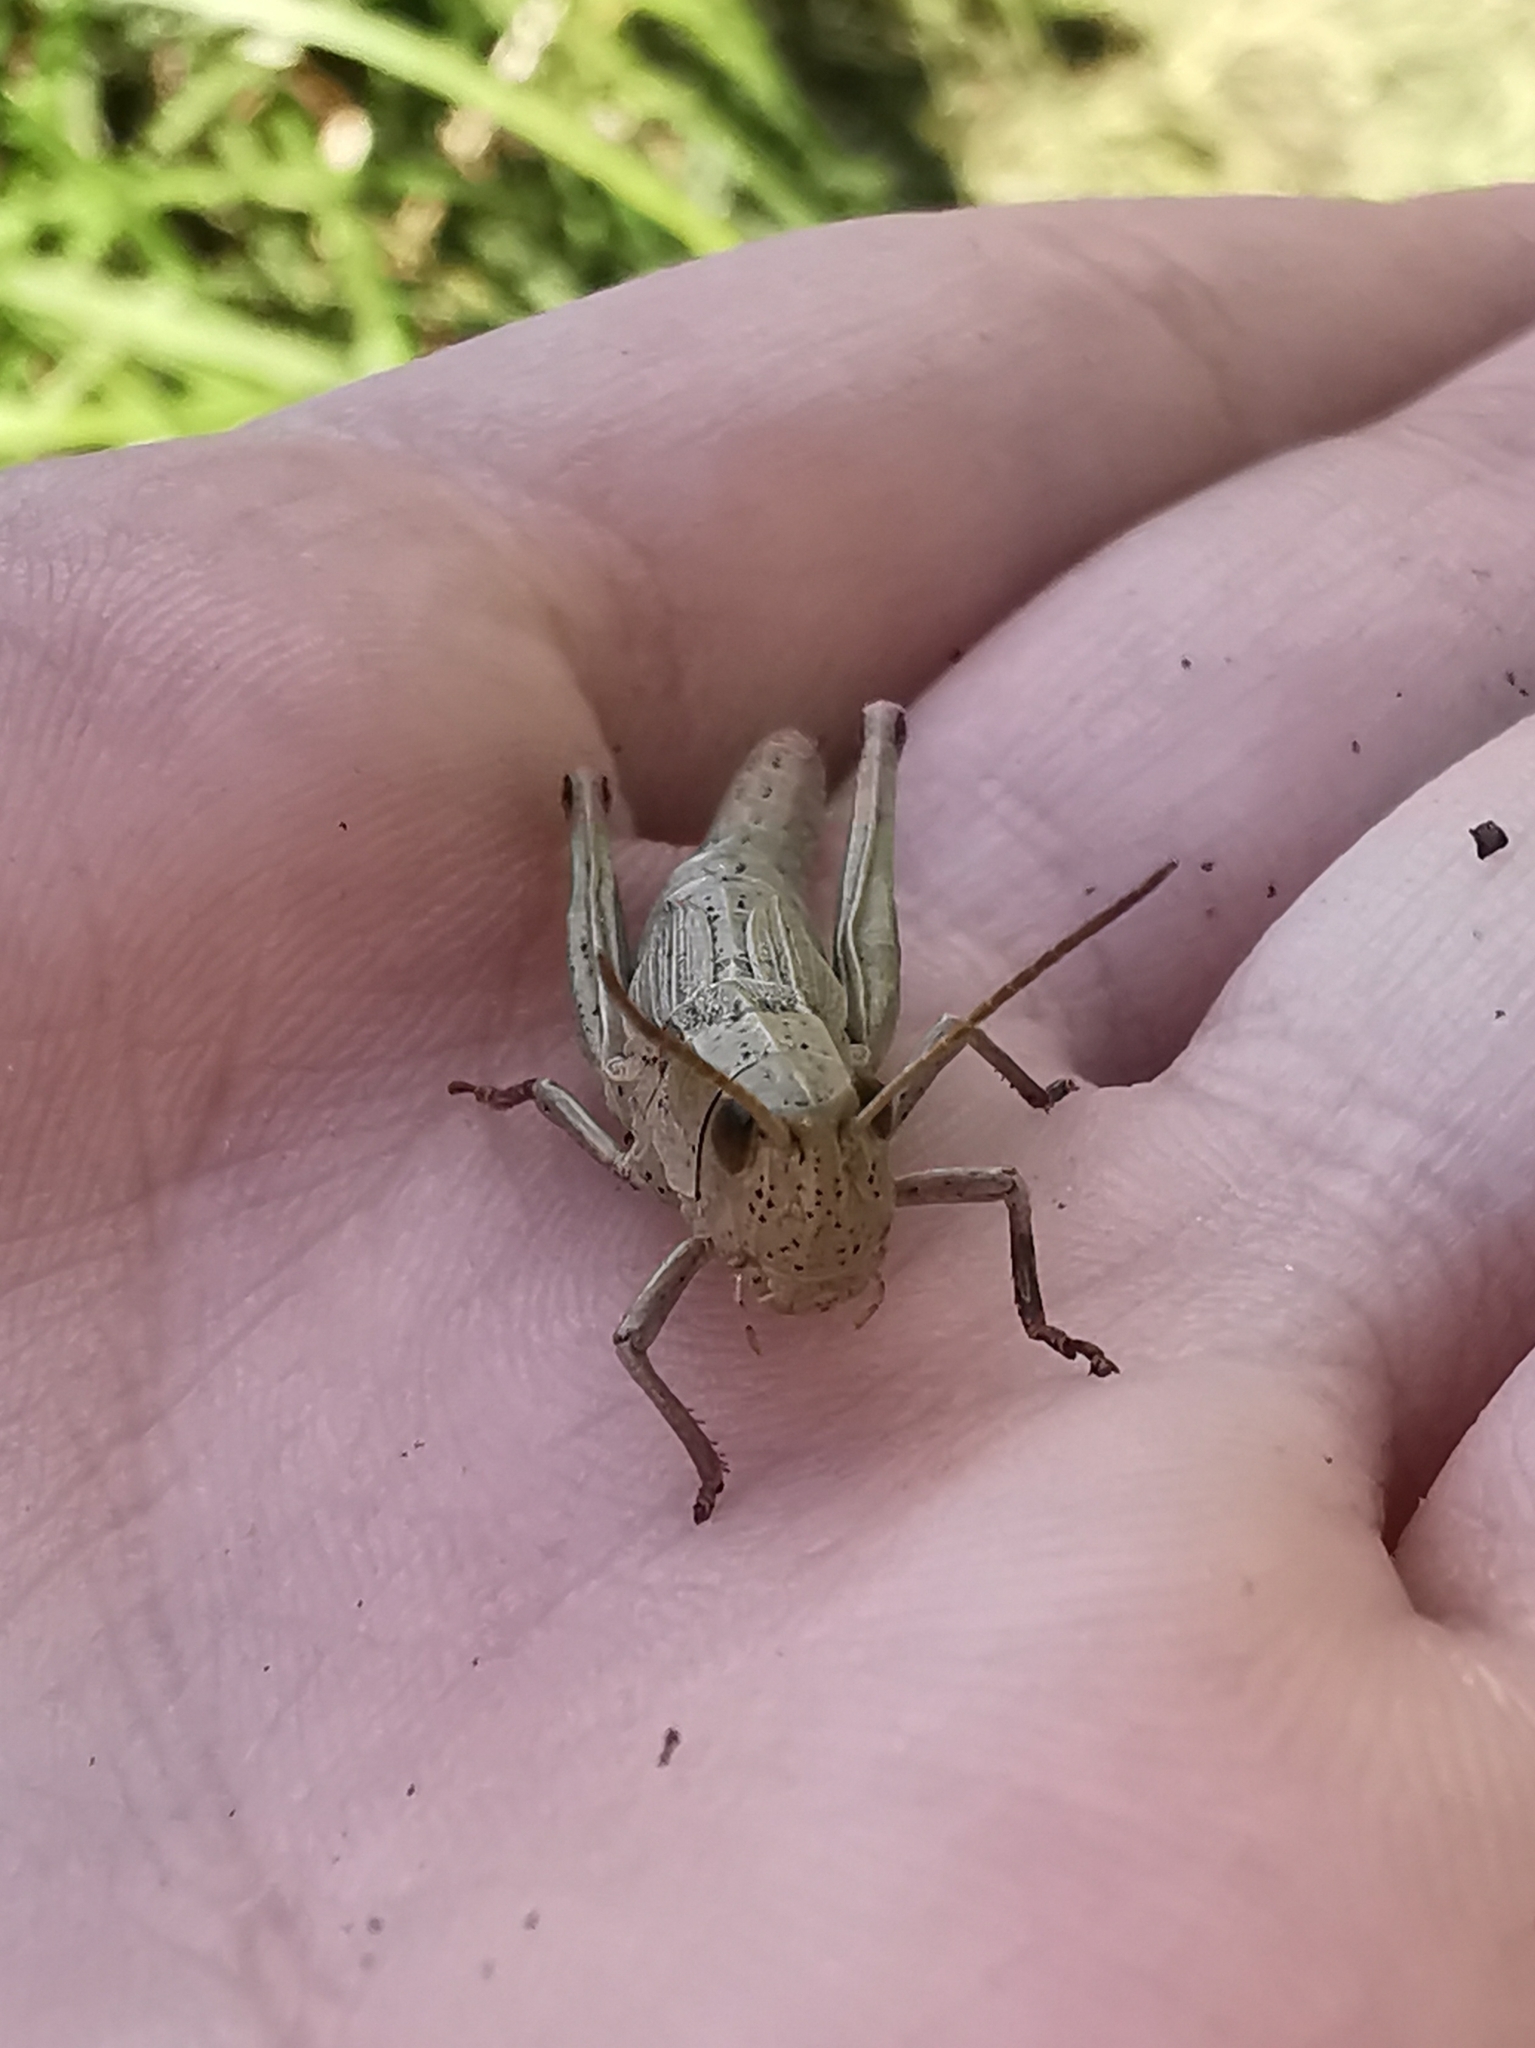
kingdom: Animalia
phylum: Arthropoda
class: Insecta
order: Orthoptera
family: Acrididae
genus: Chrysochraon
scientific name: Chrysochraon dispar
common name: Large gold grasshopper
